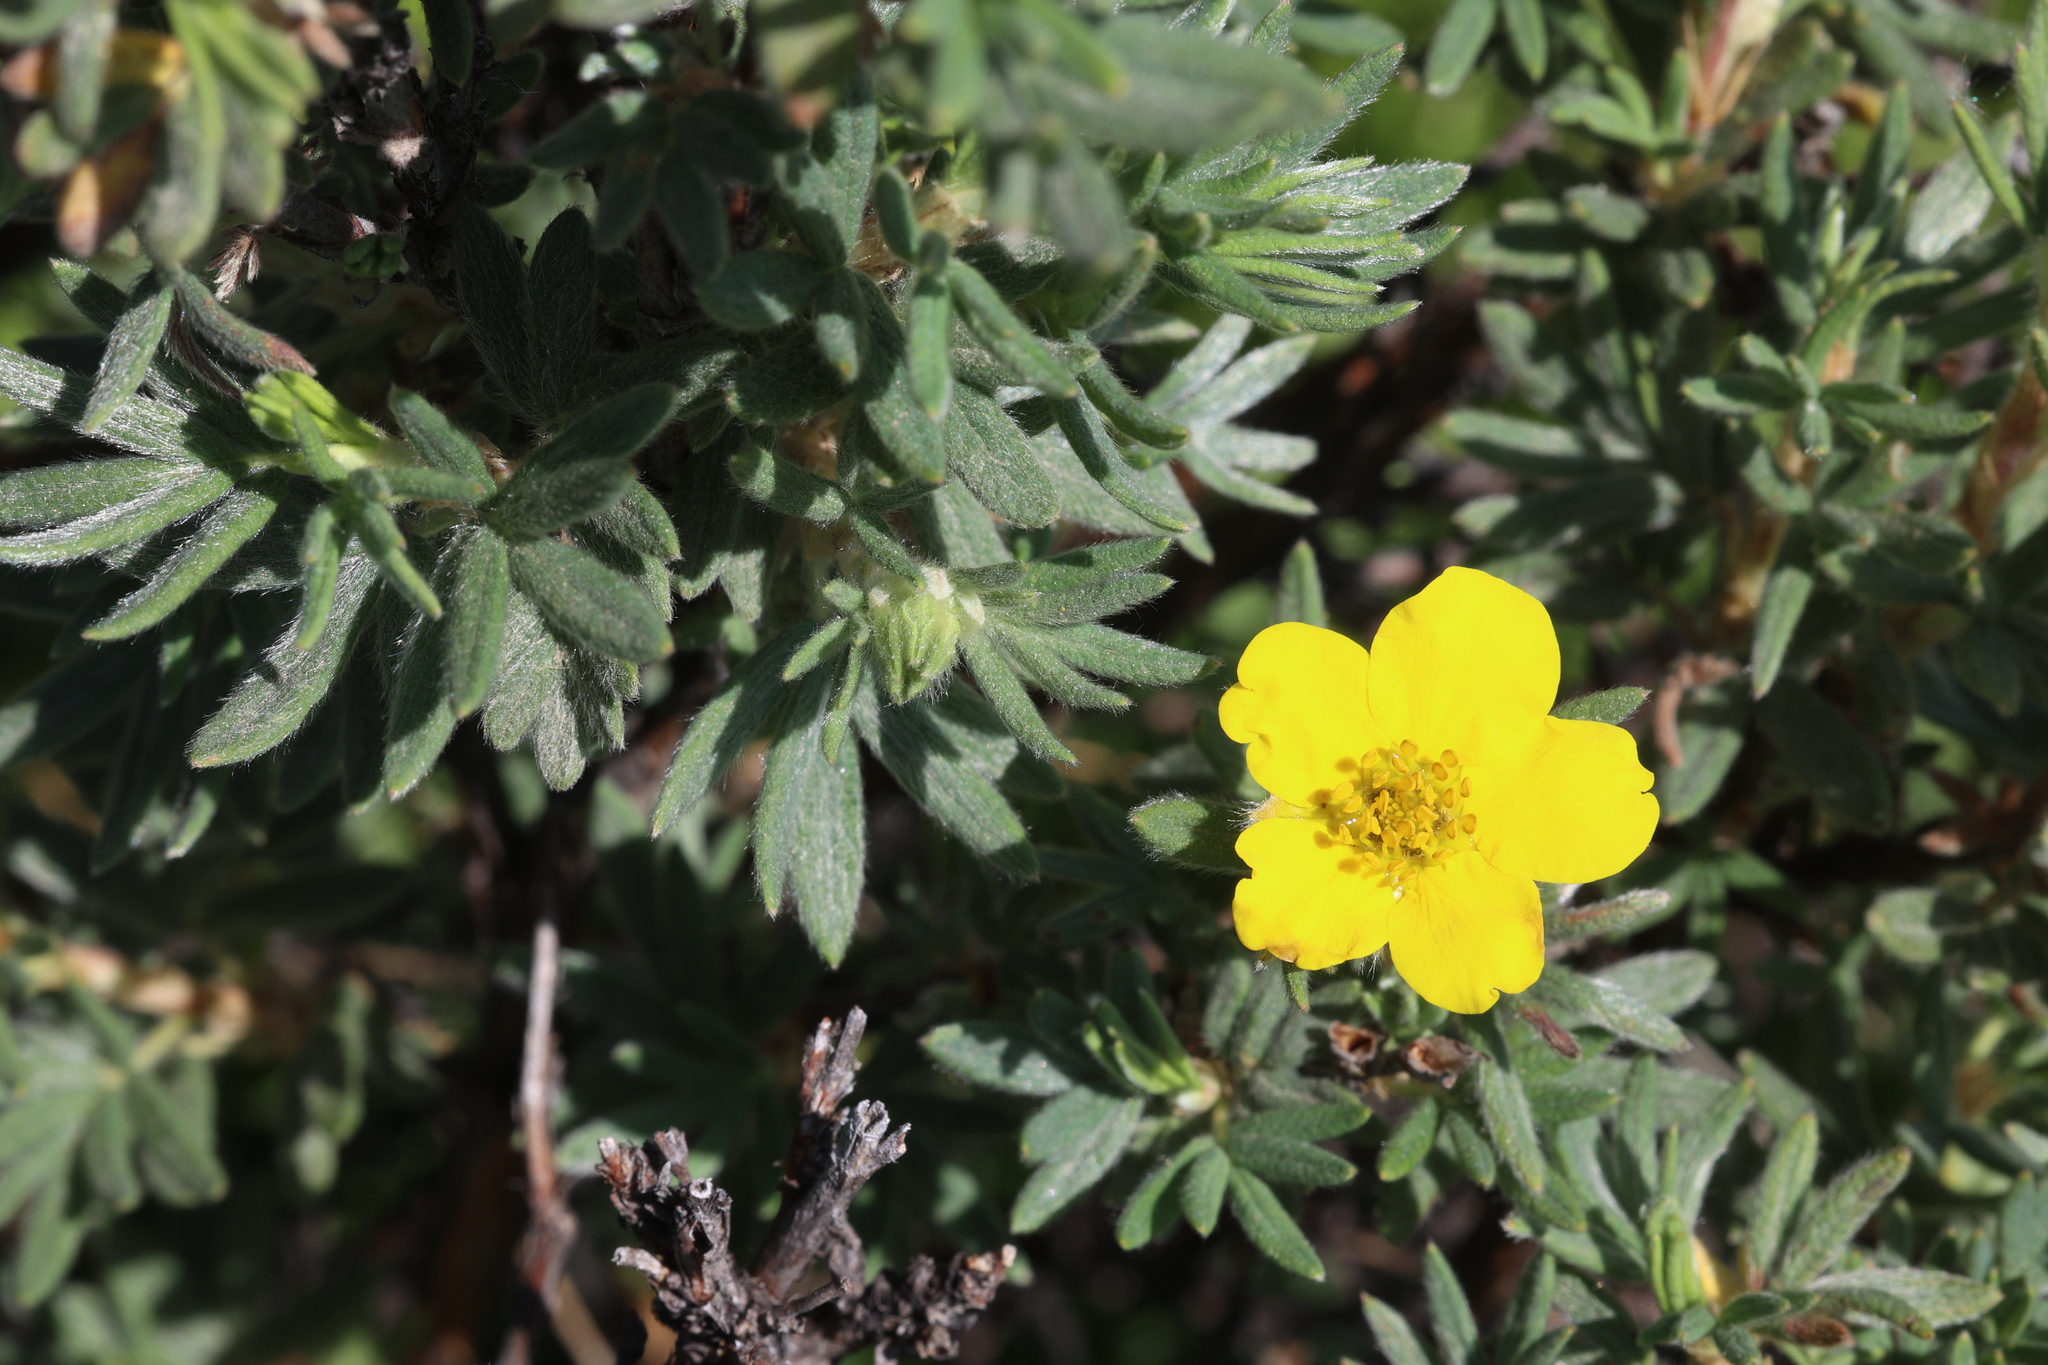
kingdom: Plantae
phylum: Tracheophyta
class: Magnoliopsida
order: Rosales
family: Rosaceae
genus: Dasiphora
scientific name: Dasiphora fruticosa
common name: Shrubby cinquefoil
